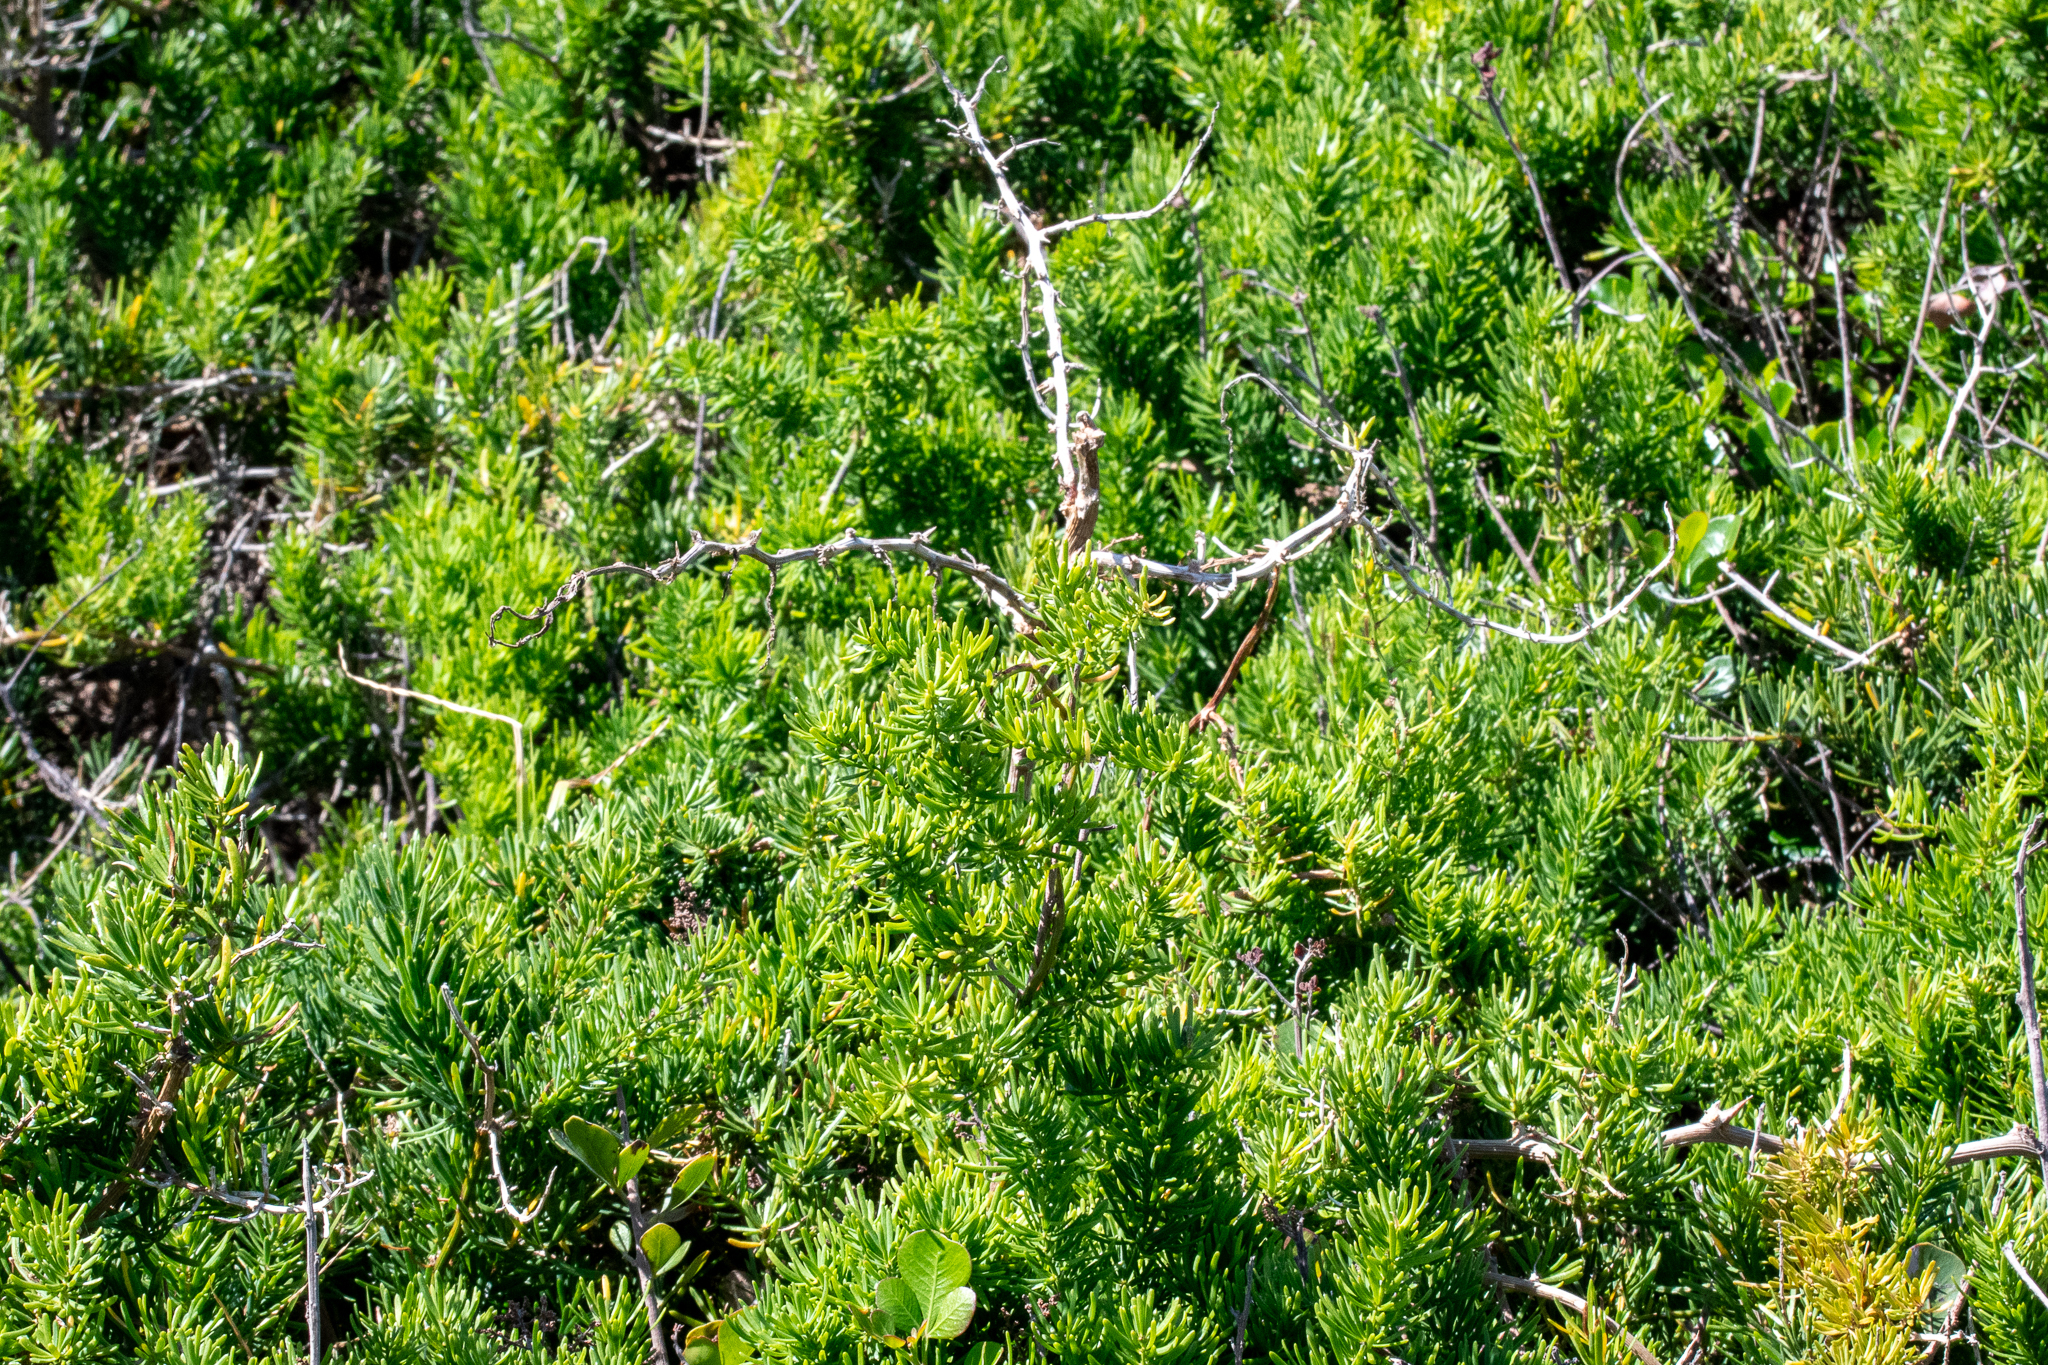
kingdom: Plantae
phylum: Tracheophyta
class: Liliopsida
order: Asparagales
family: Asparagaceae
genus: Asparagus
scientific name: Asparagus aethiopicus
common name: Sprenger's asparagus fern
